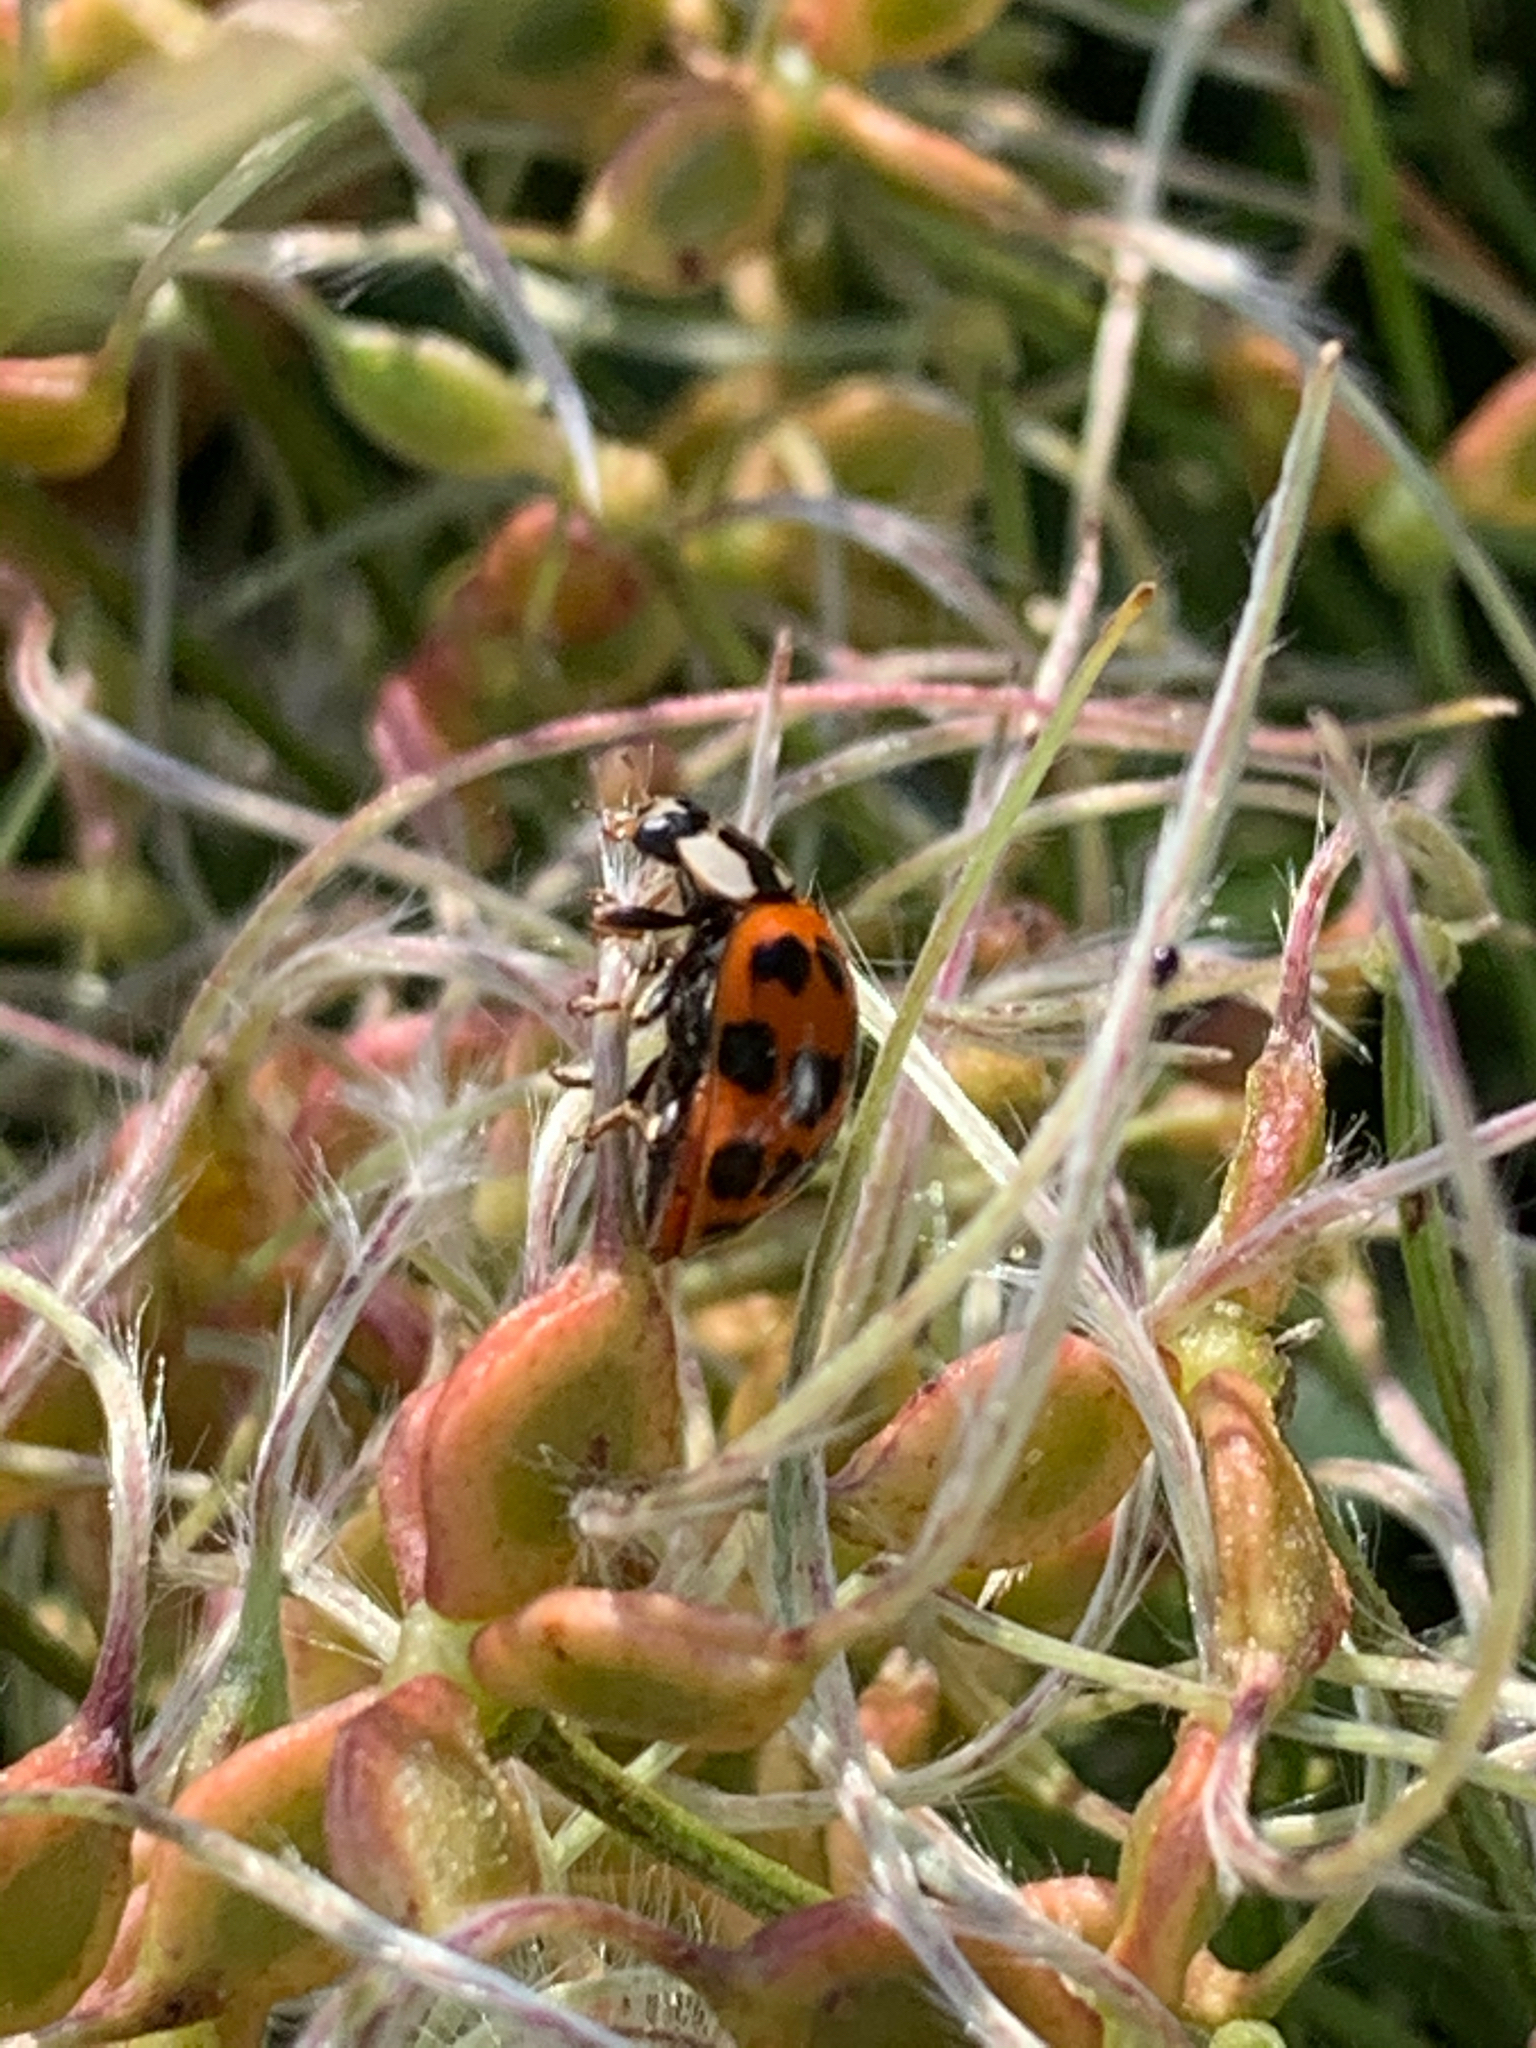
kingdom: Animalia
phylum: Arthropoda
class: Insecta
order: Coleoptera
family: Coccinellidae
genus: Harmonia
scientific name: Harmonia axyridis
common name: Harlequin ladybird
